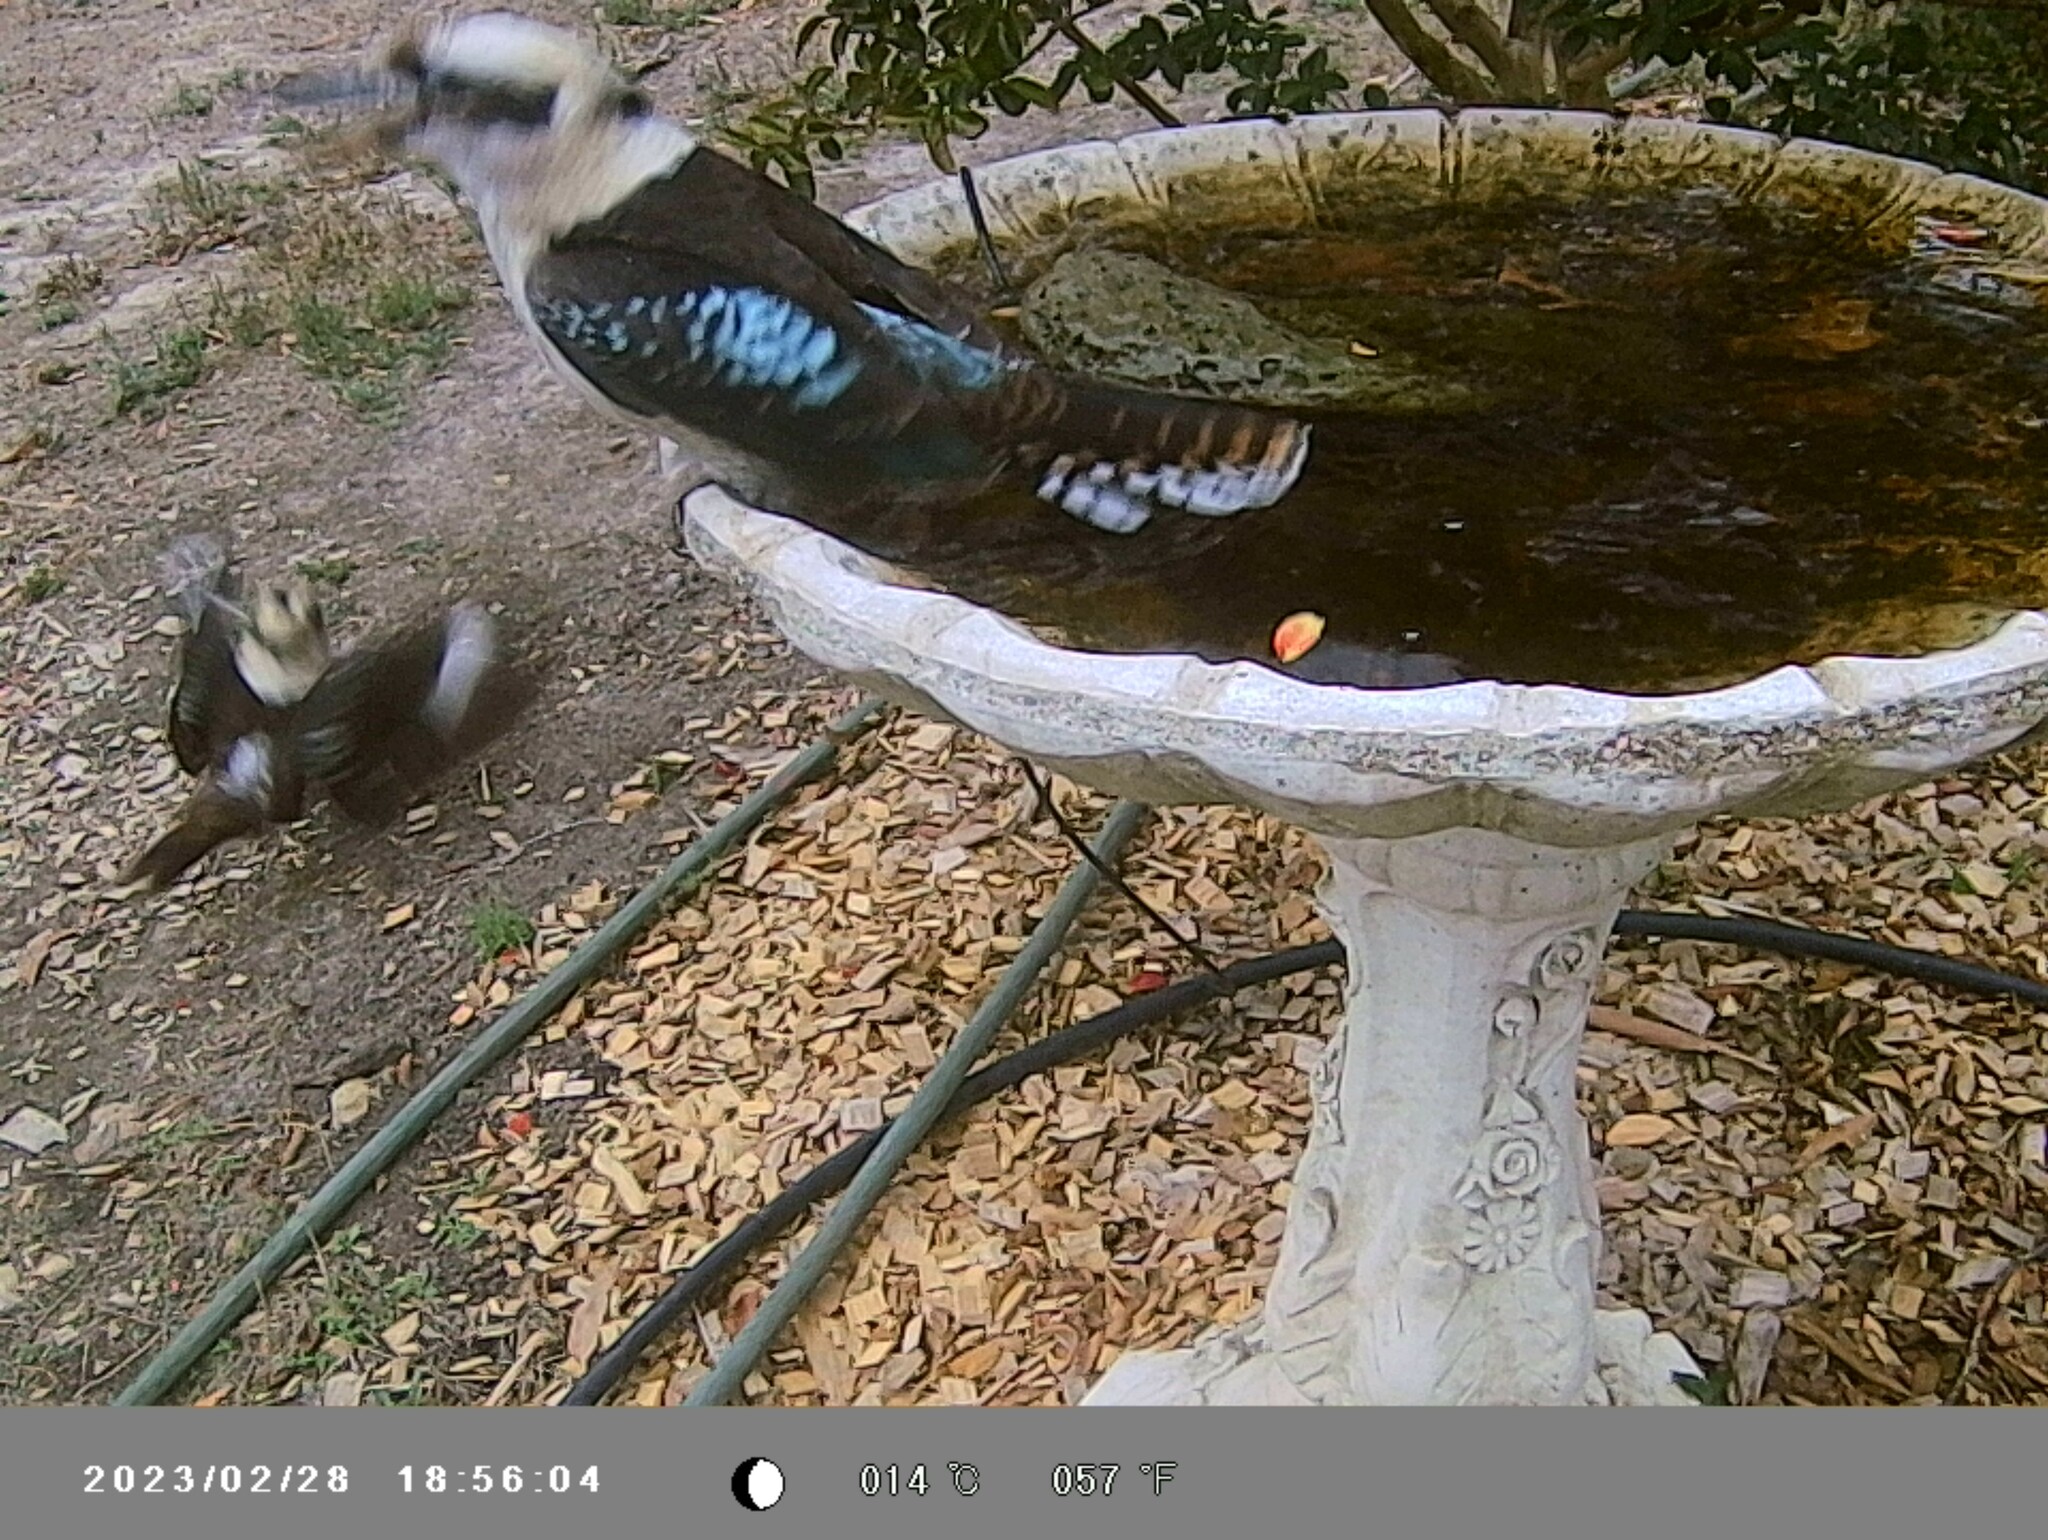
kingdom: Animalia
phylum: Chordata
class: Aves
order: Coraciiformes
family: Alcedinidae
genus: Dacelo
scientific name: Dacelo novaeguineae
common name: Laughing kookaburra
